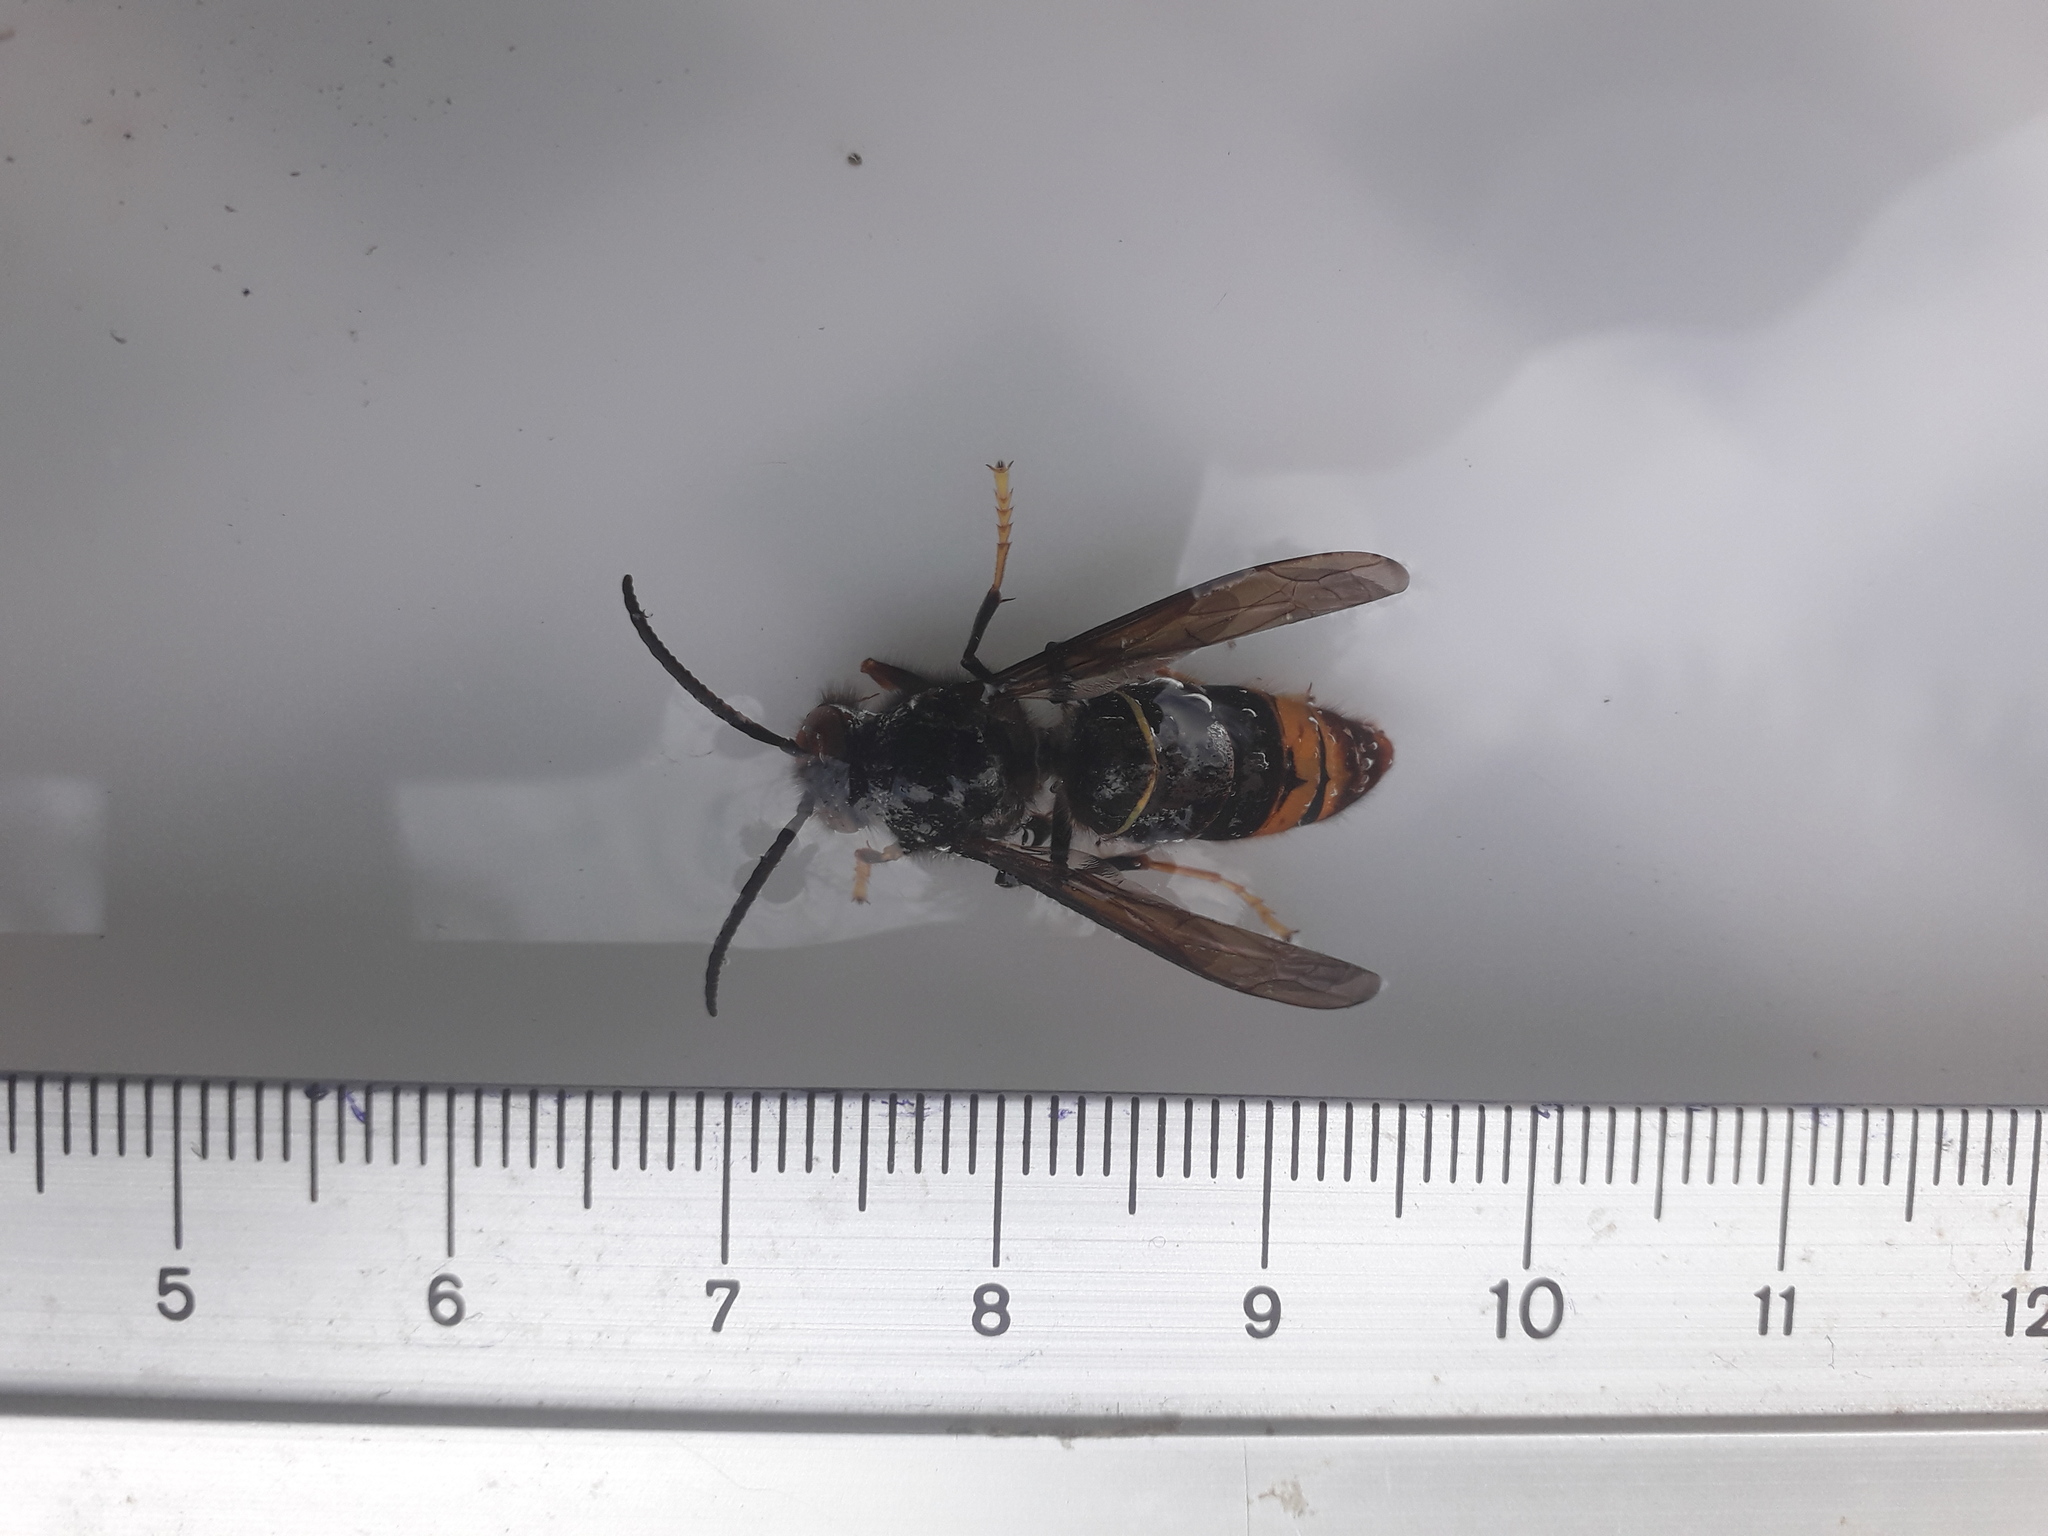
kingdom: Animalia
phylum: Arthropoda
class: Insecta
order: Hymenoptera
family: Vespidae
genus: Vespa
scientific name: Vespa velutina
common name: Asian hornet
